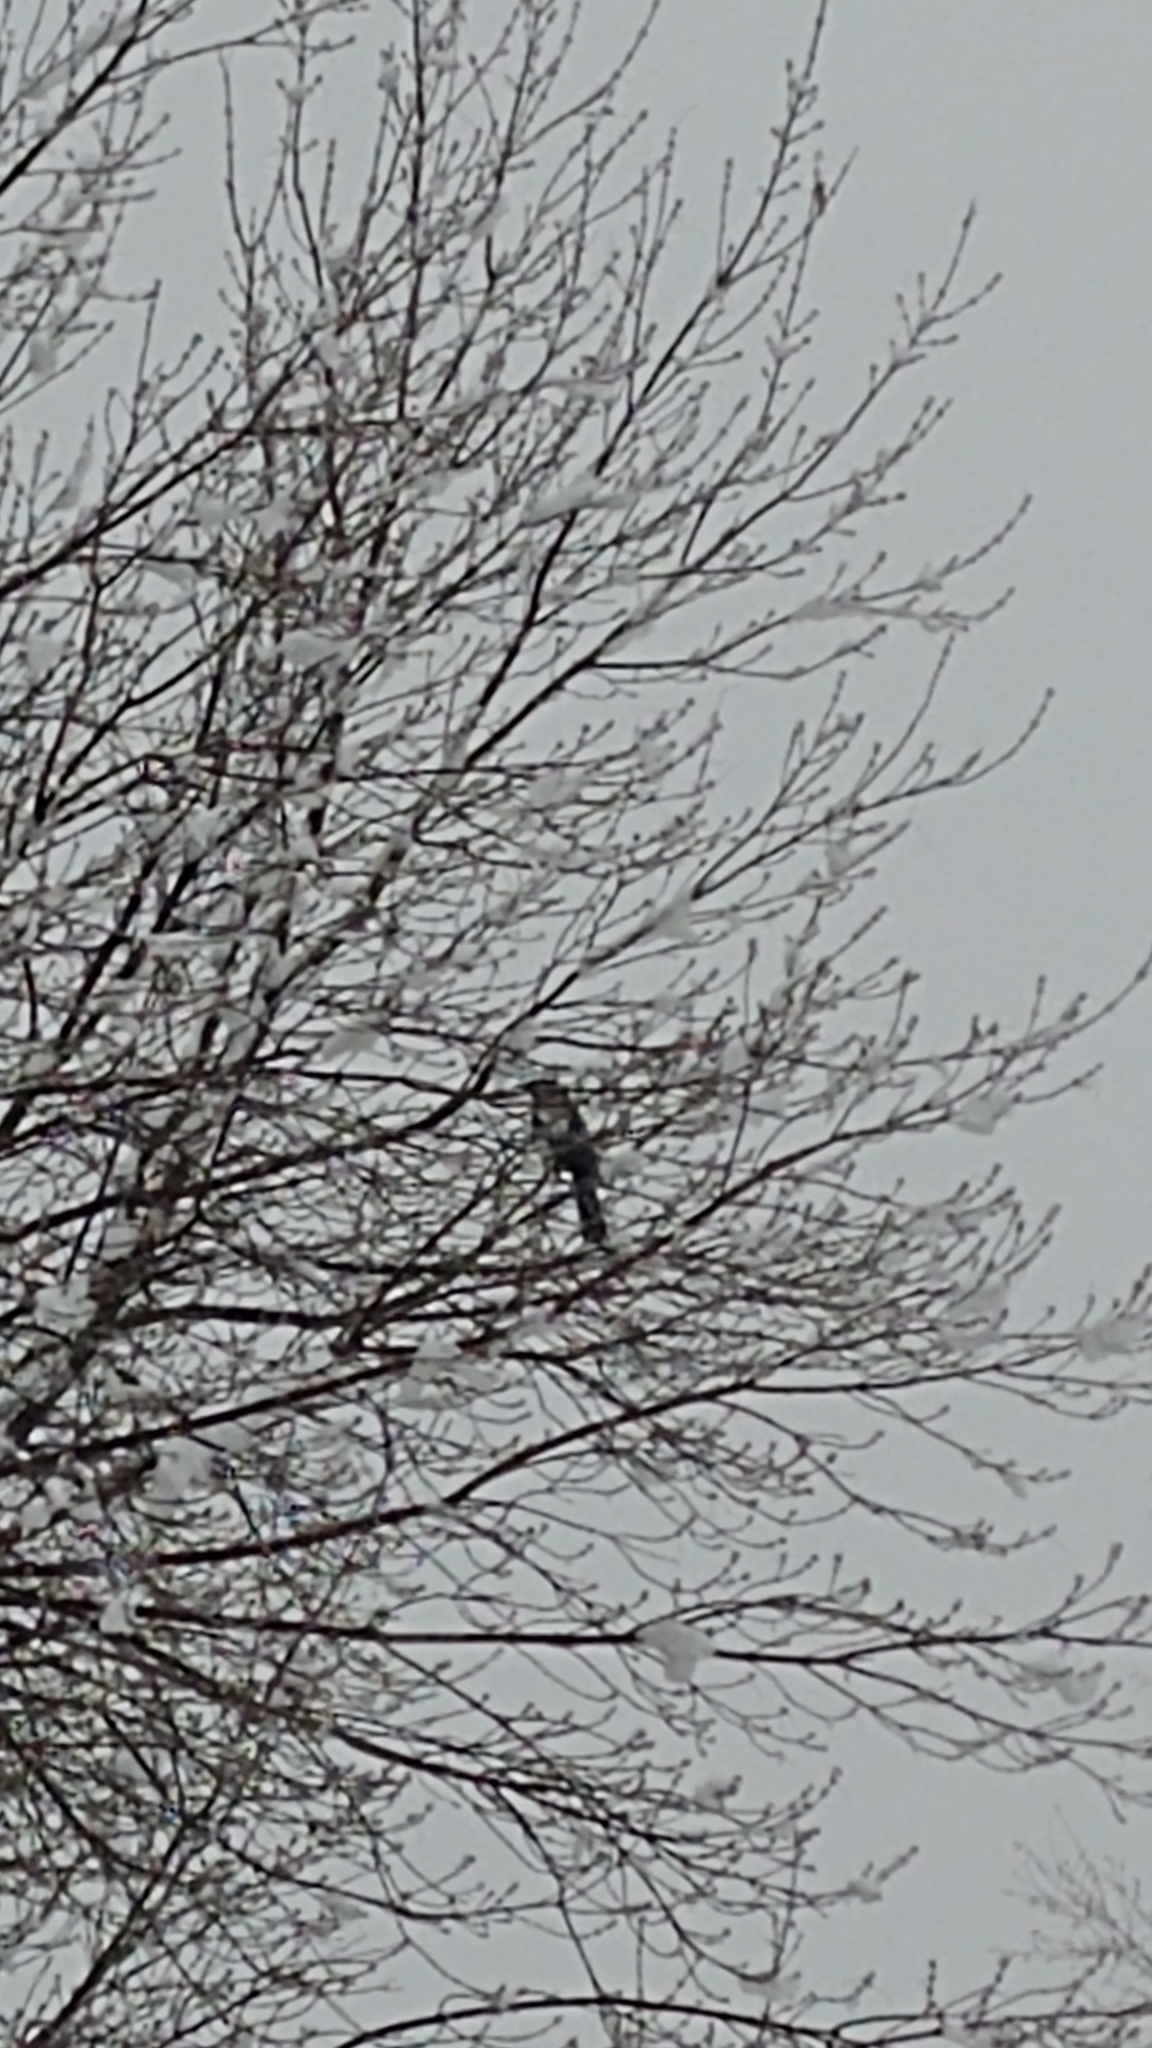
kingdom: Animalia
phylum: Chordata
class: Aves
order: Passeriformes
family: Corvidae
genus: Pica
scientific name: Pica hudsonia
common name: Black-billed magpie
